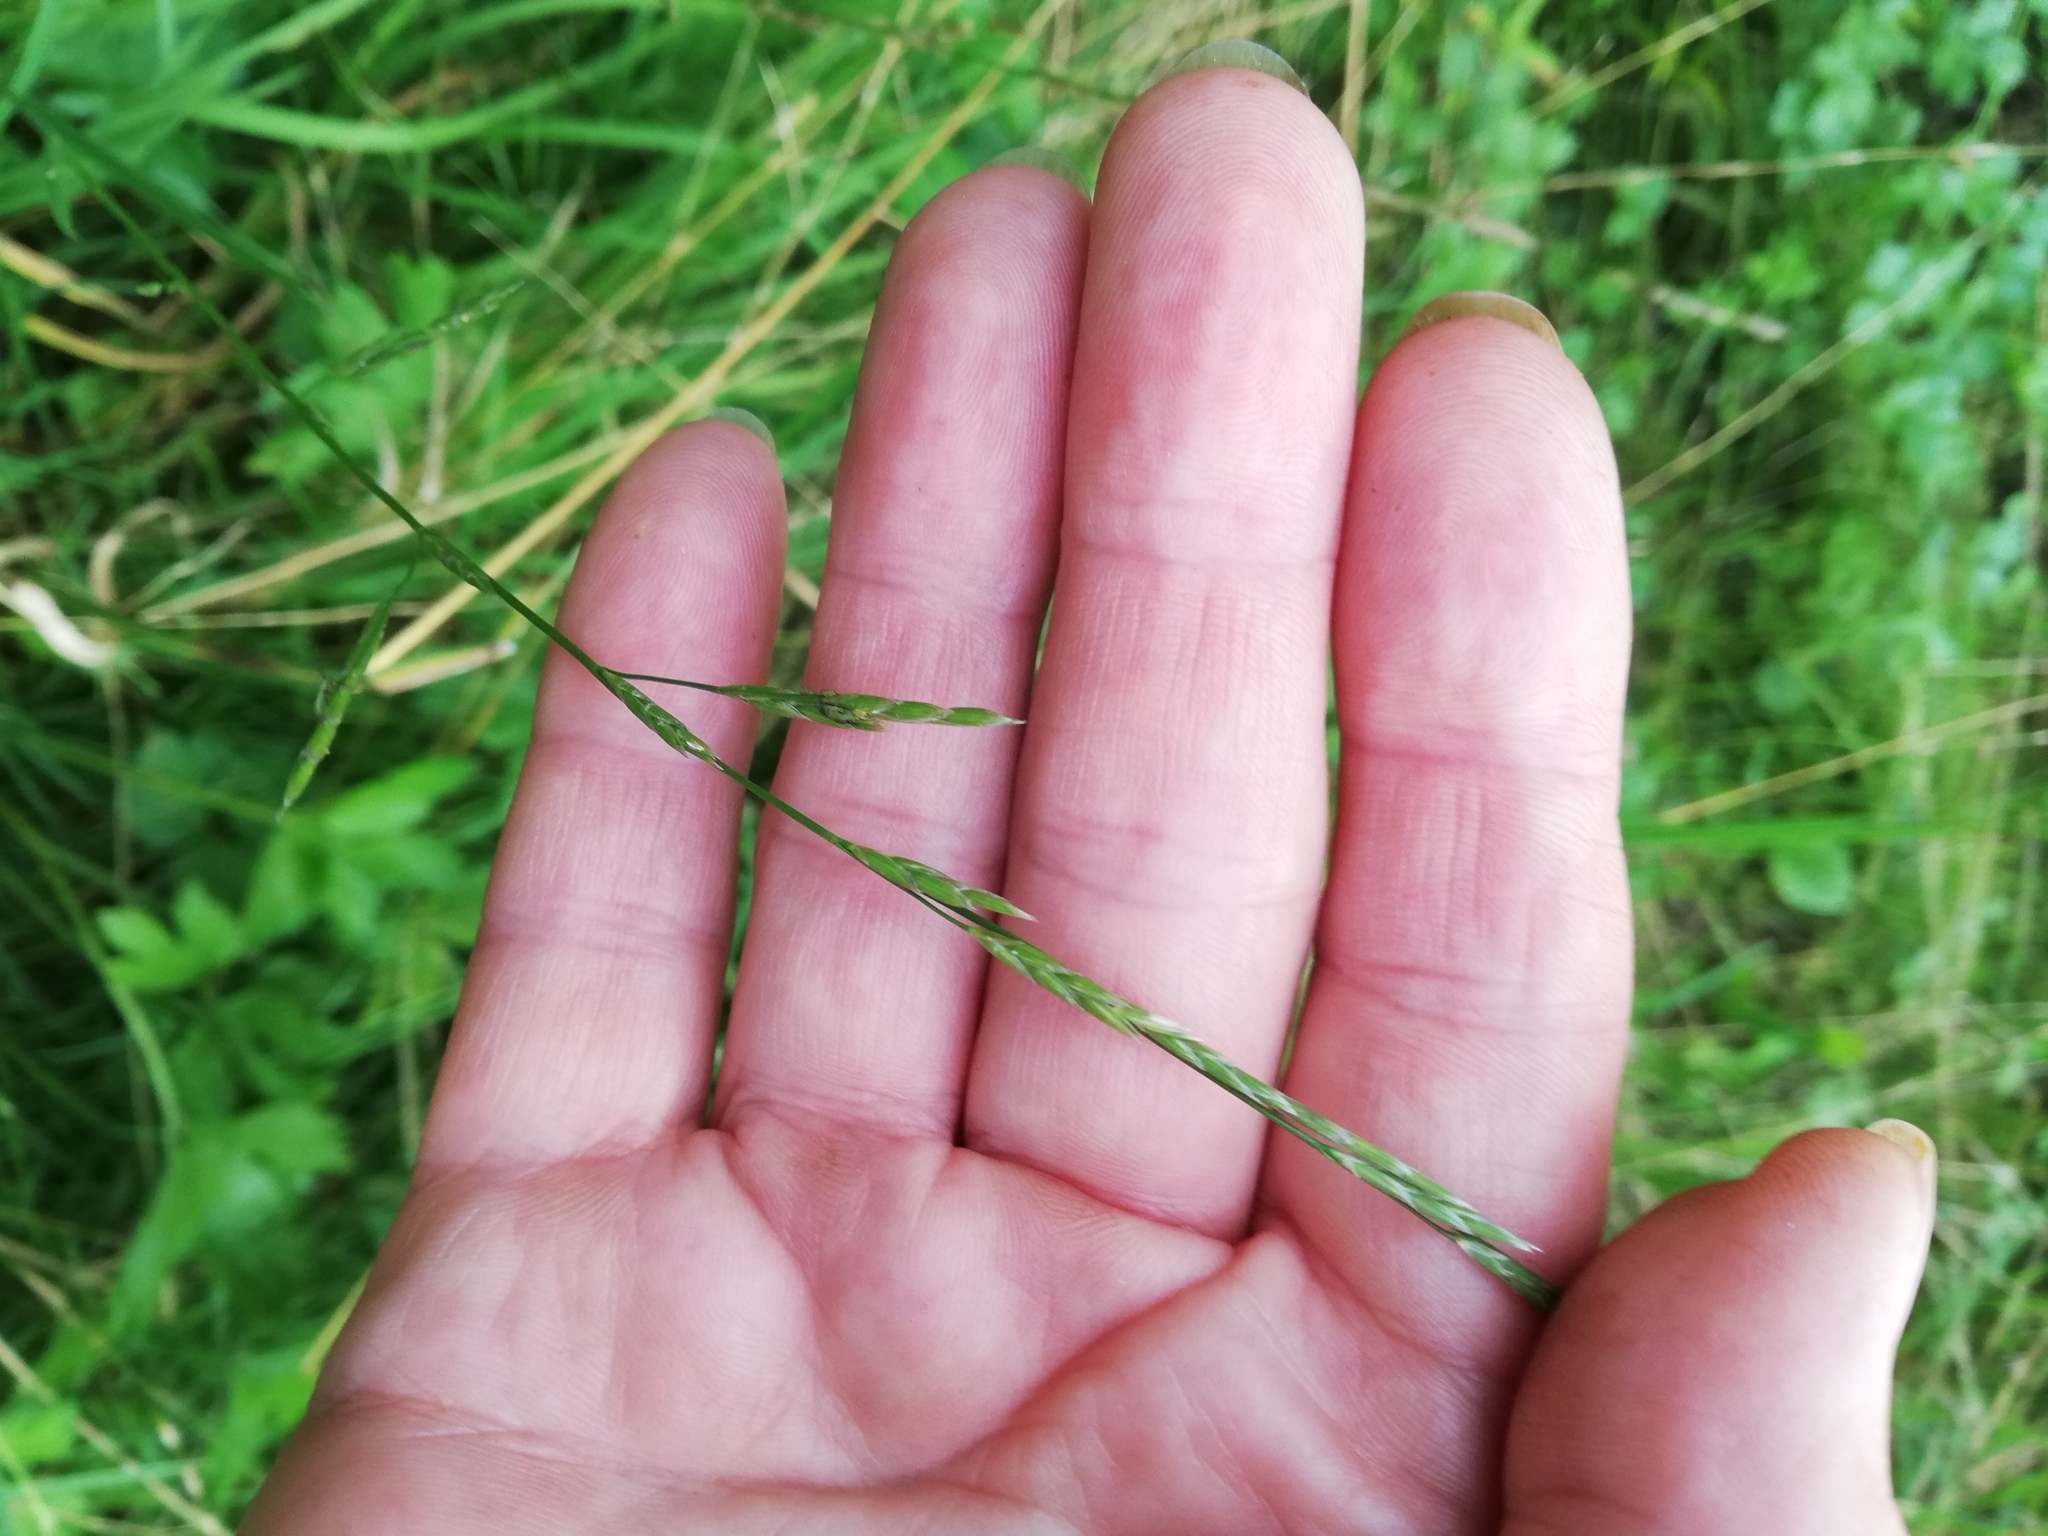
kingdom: Plantae
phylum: Tracheophyta
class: Liliopsida
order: Poales
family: Poaceae
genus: Lolium
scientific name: Lolium pratense
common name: Dover grass
